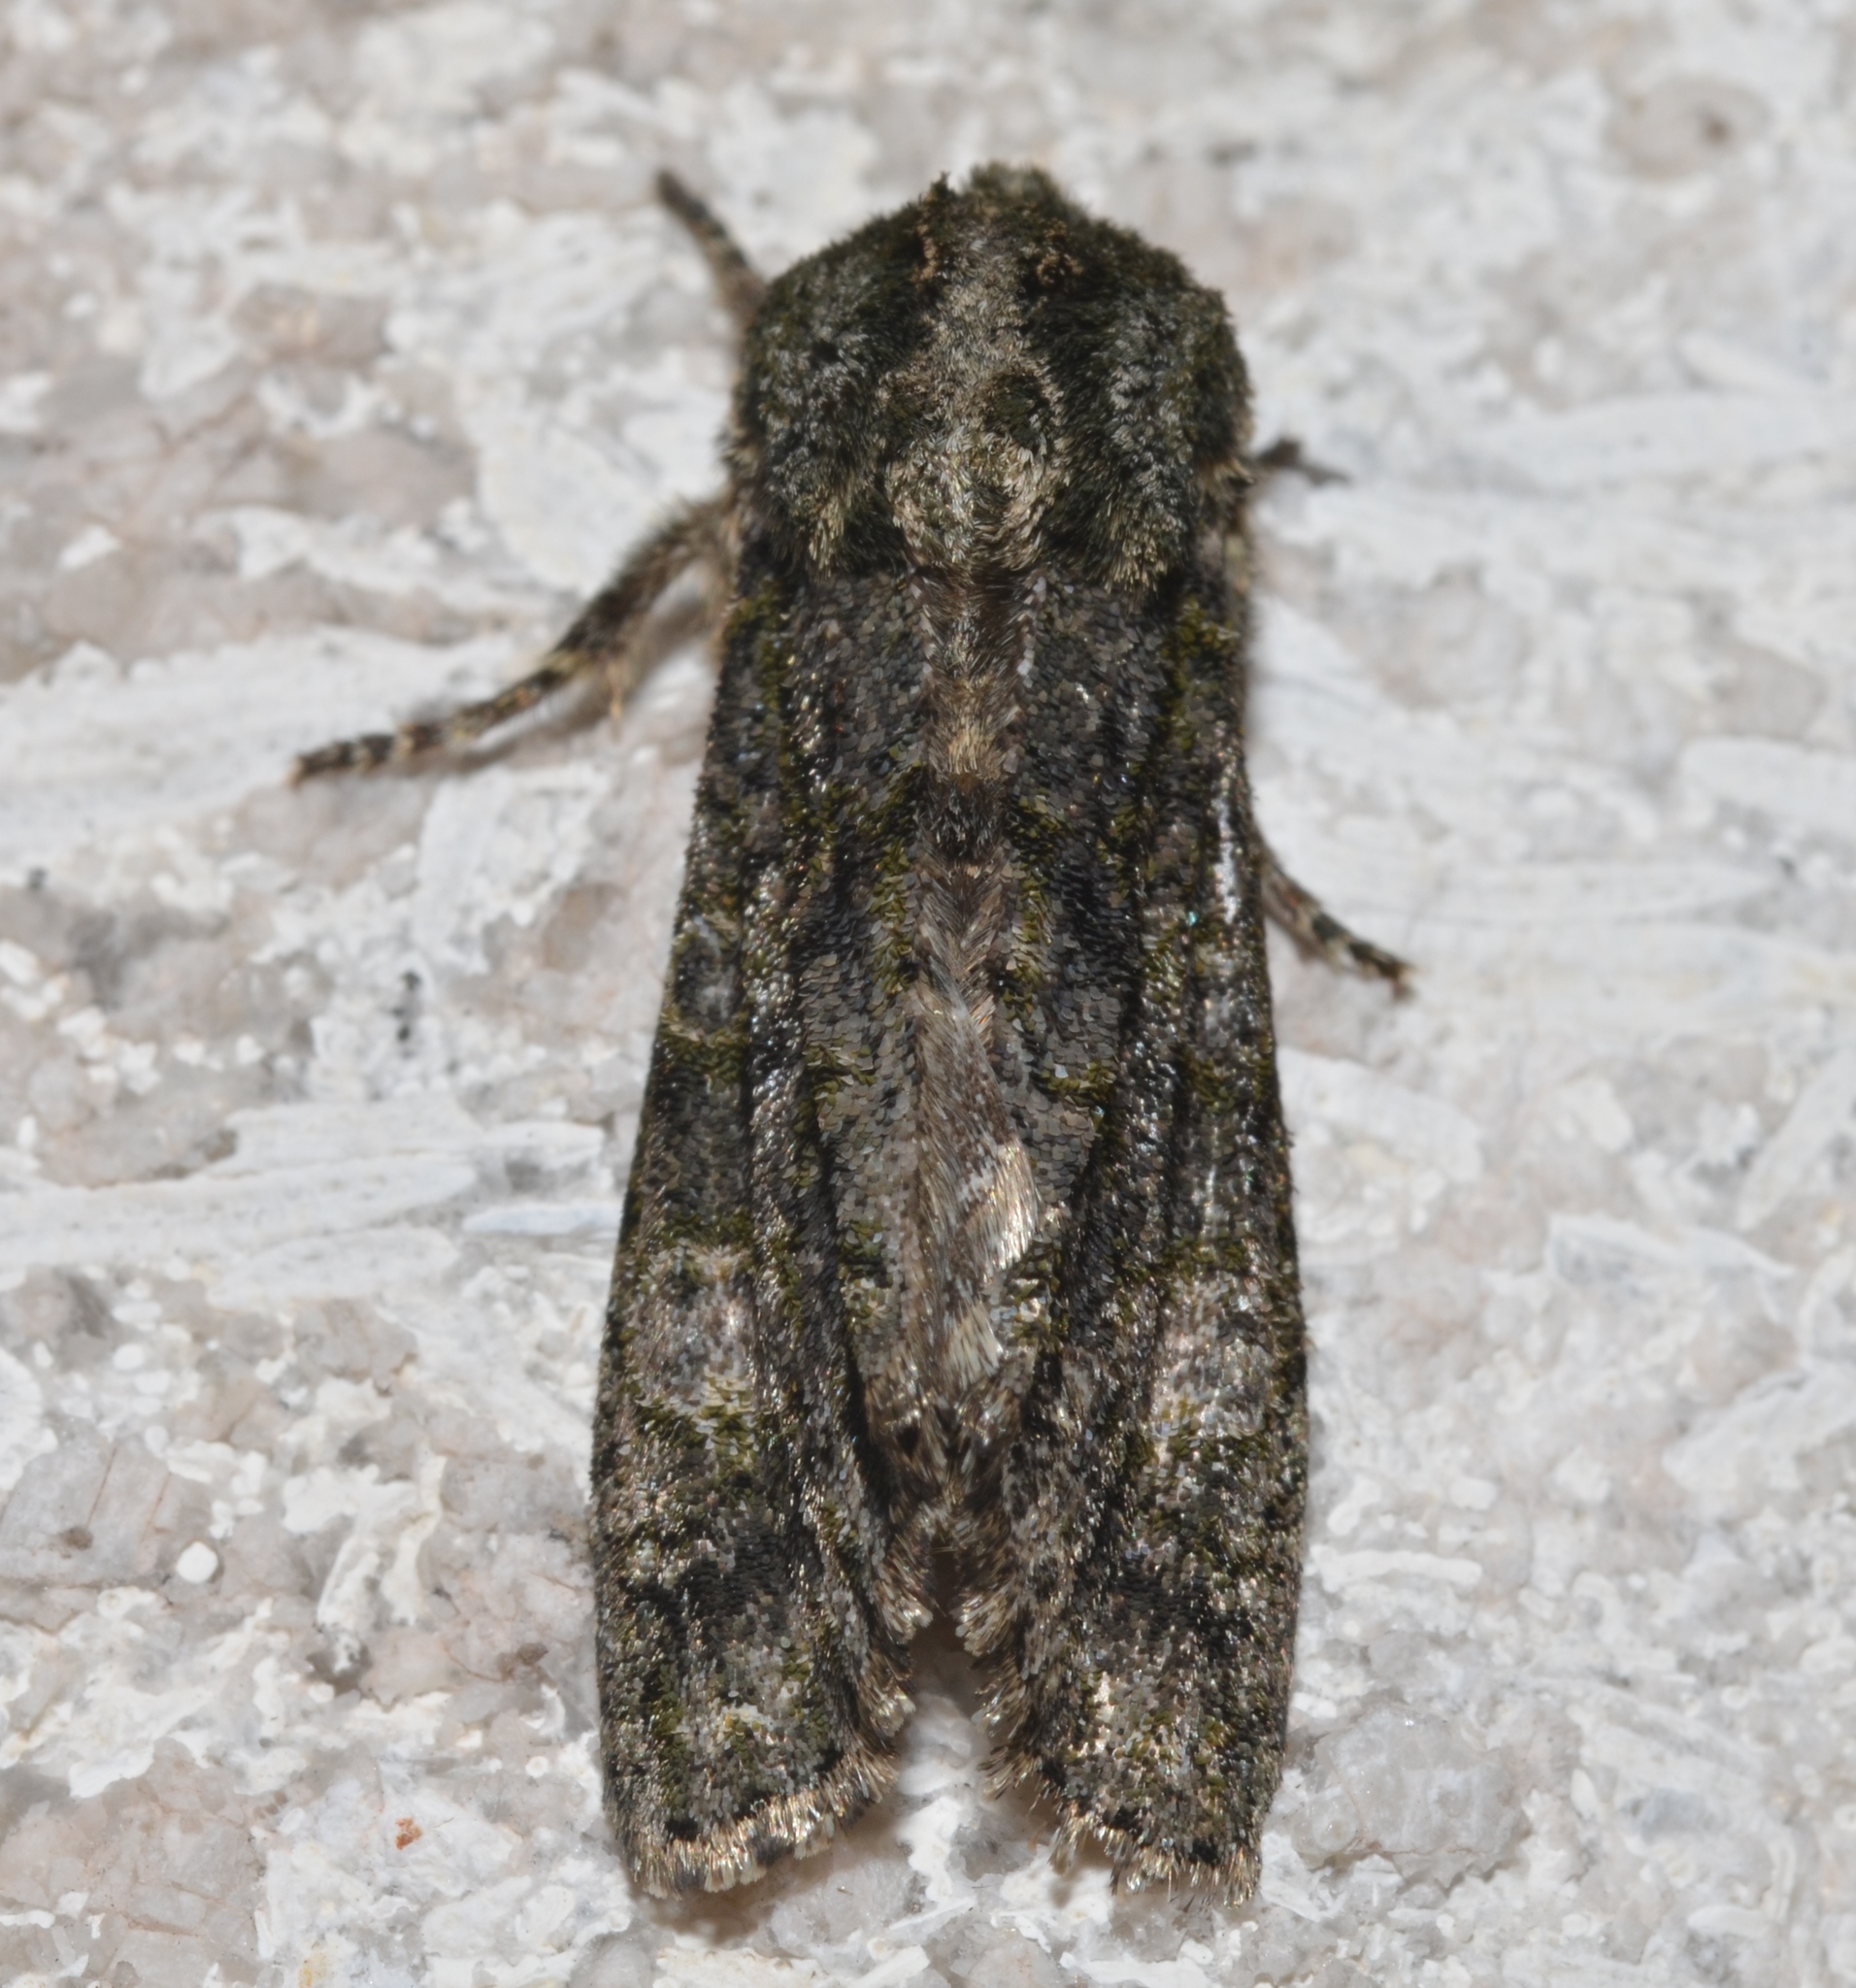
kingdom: Animalia
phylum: Arthropoda
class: Insecta
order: Lepidoptera
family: Noctuidae
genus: Psaphida
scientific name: Psaphida grotei
